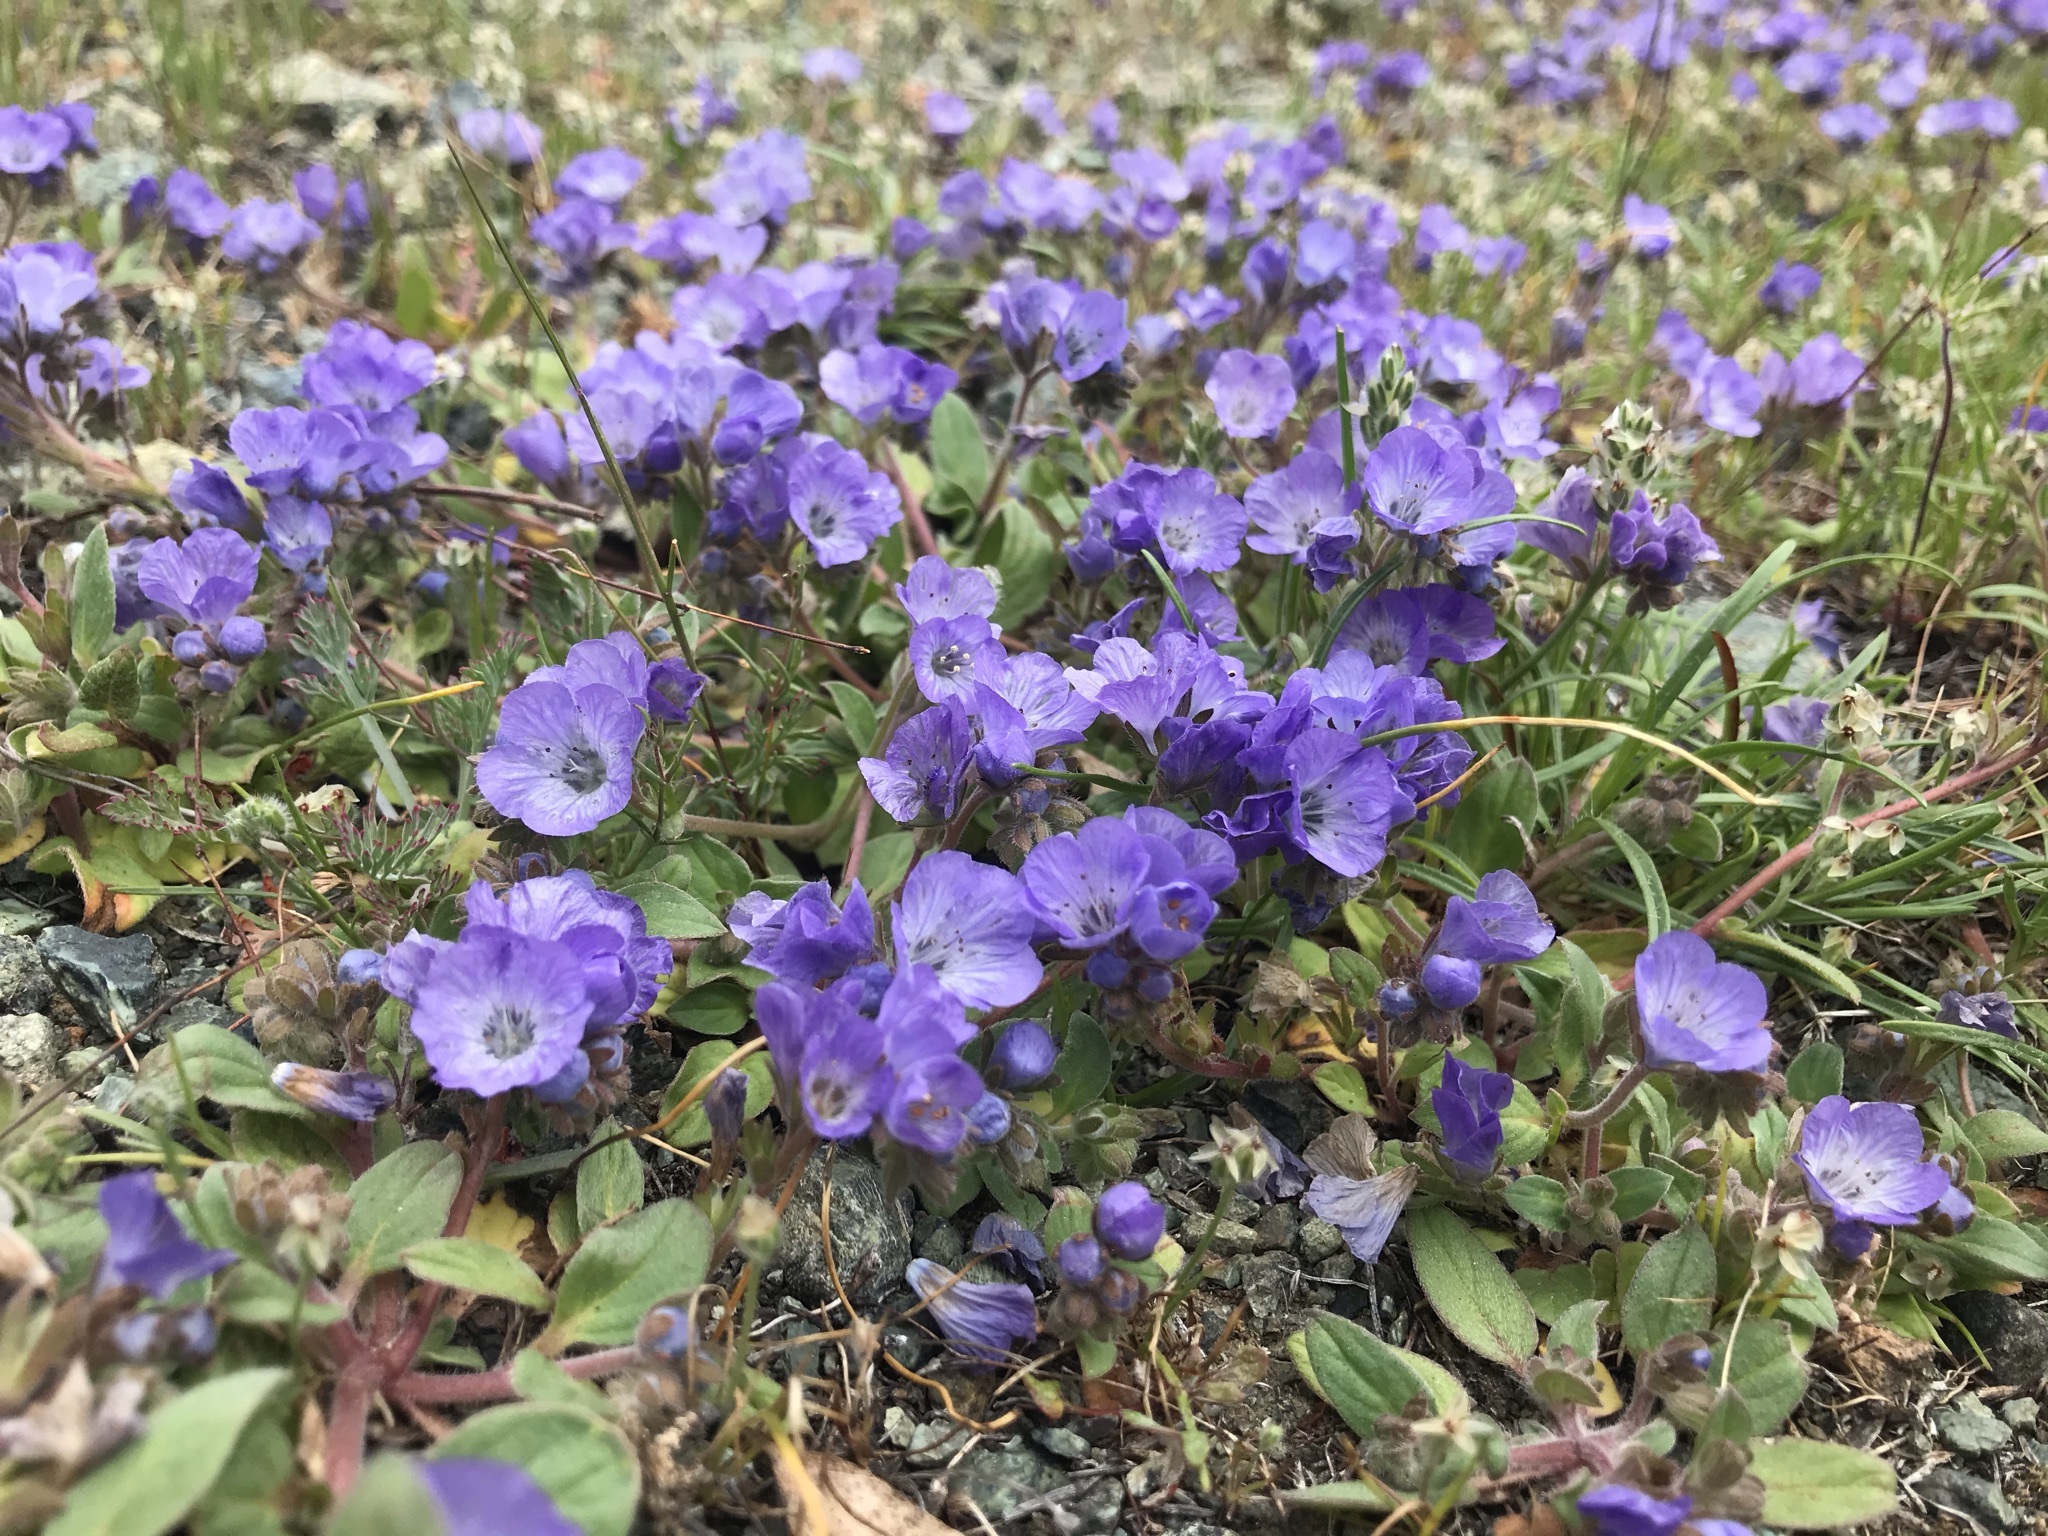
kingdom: Plantae
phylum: Tracheophyta
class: Magnoliopsida
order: Boraginales
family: Hydrophyllaceae
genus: Phacelia
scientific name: Phacelia divaricata
